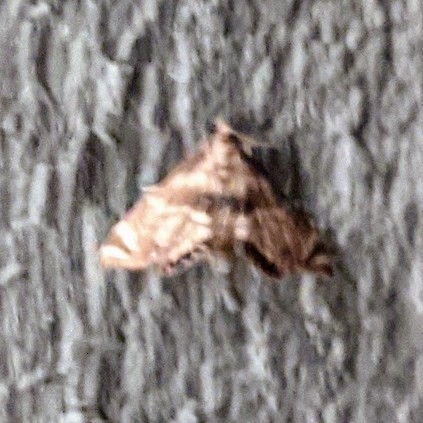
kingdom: Animalia
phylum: Arthropoda
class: Insecta
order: Lepidoptera
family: Crambidae
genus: Petrophila
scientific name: Petrophila canadensis
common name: Canadian petrophila
